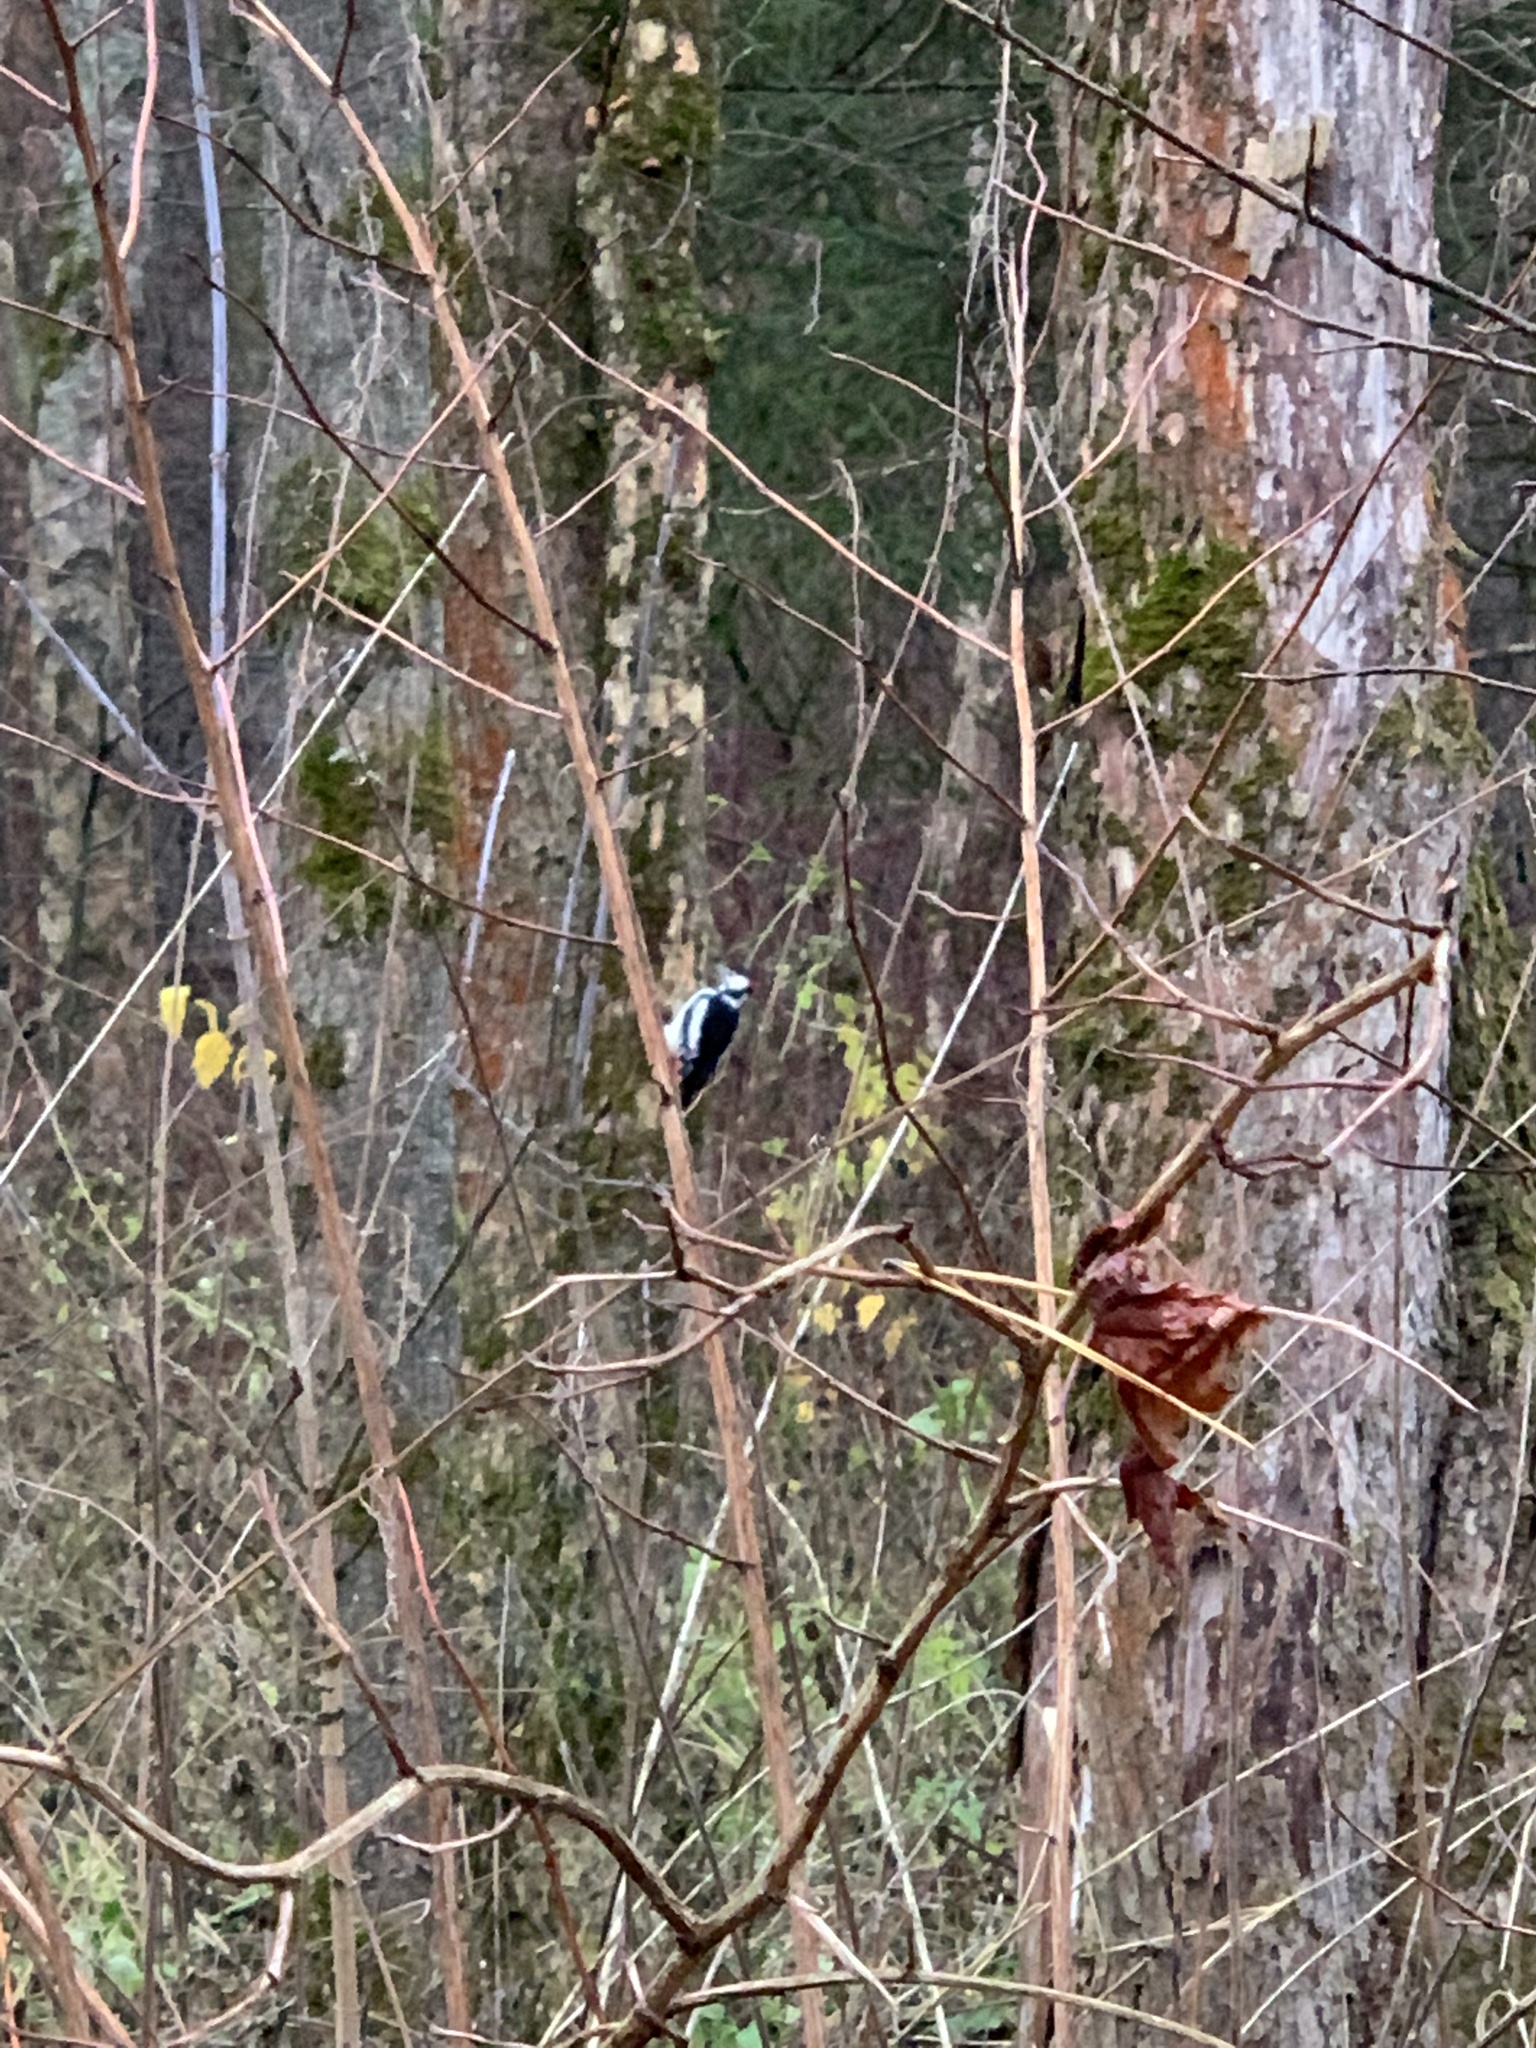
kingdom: Animalia
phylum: Chordata
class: Aves
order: Piciformes
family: Picidae
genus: Dendrocopos
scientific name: Dendrocopos major
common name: Great spotted woodpecker
